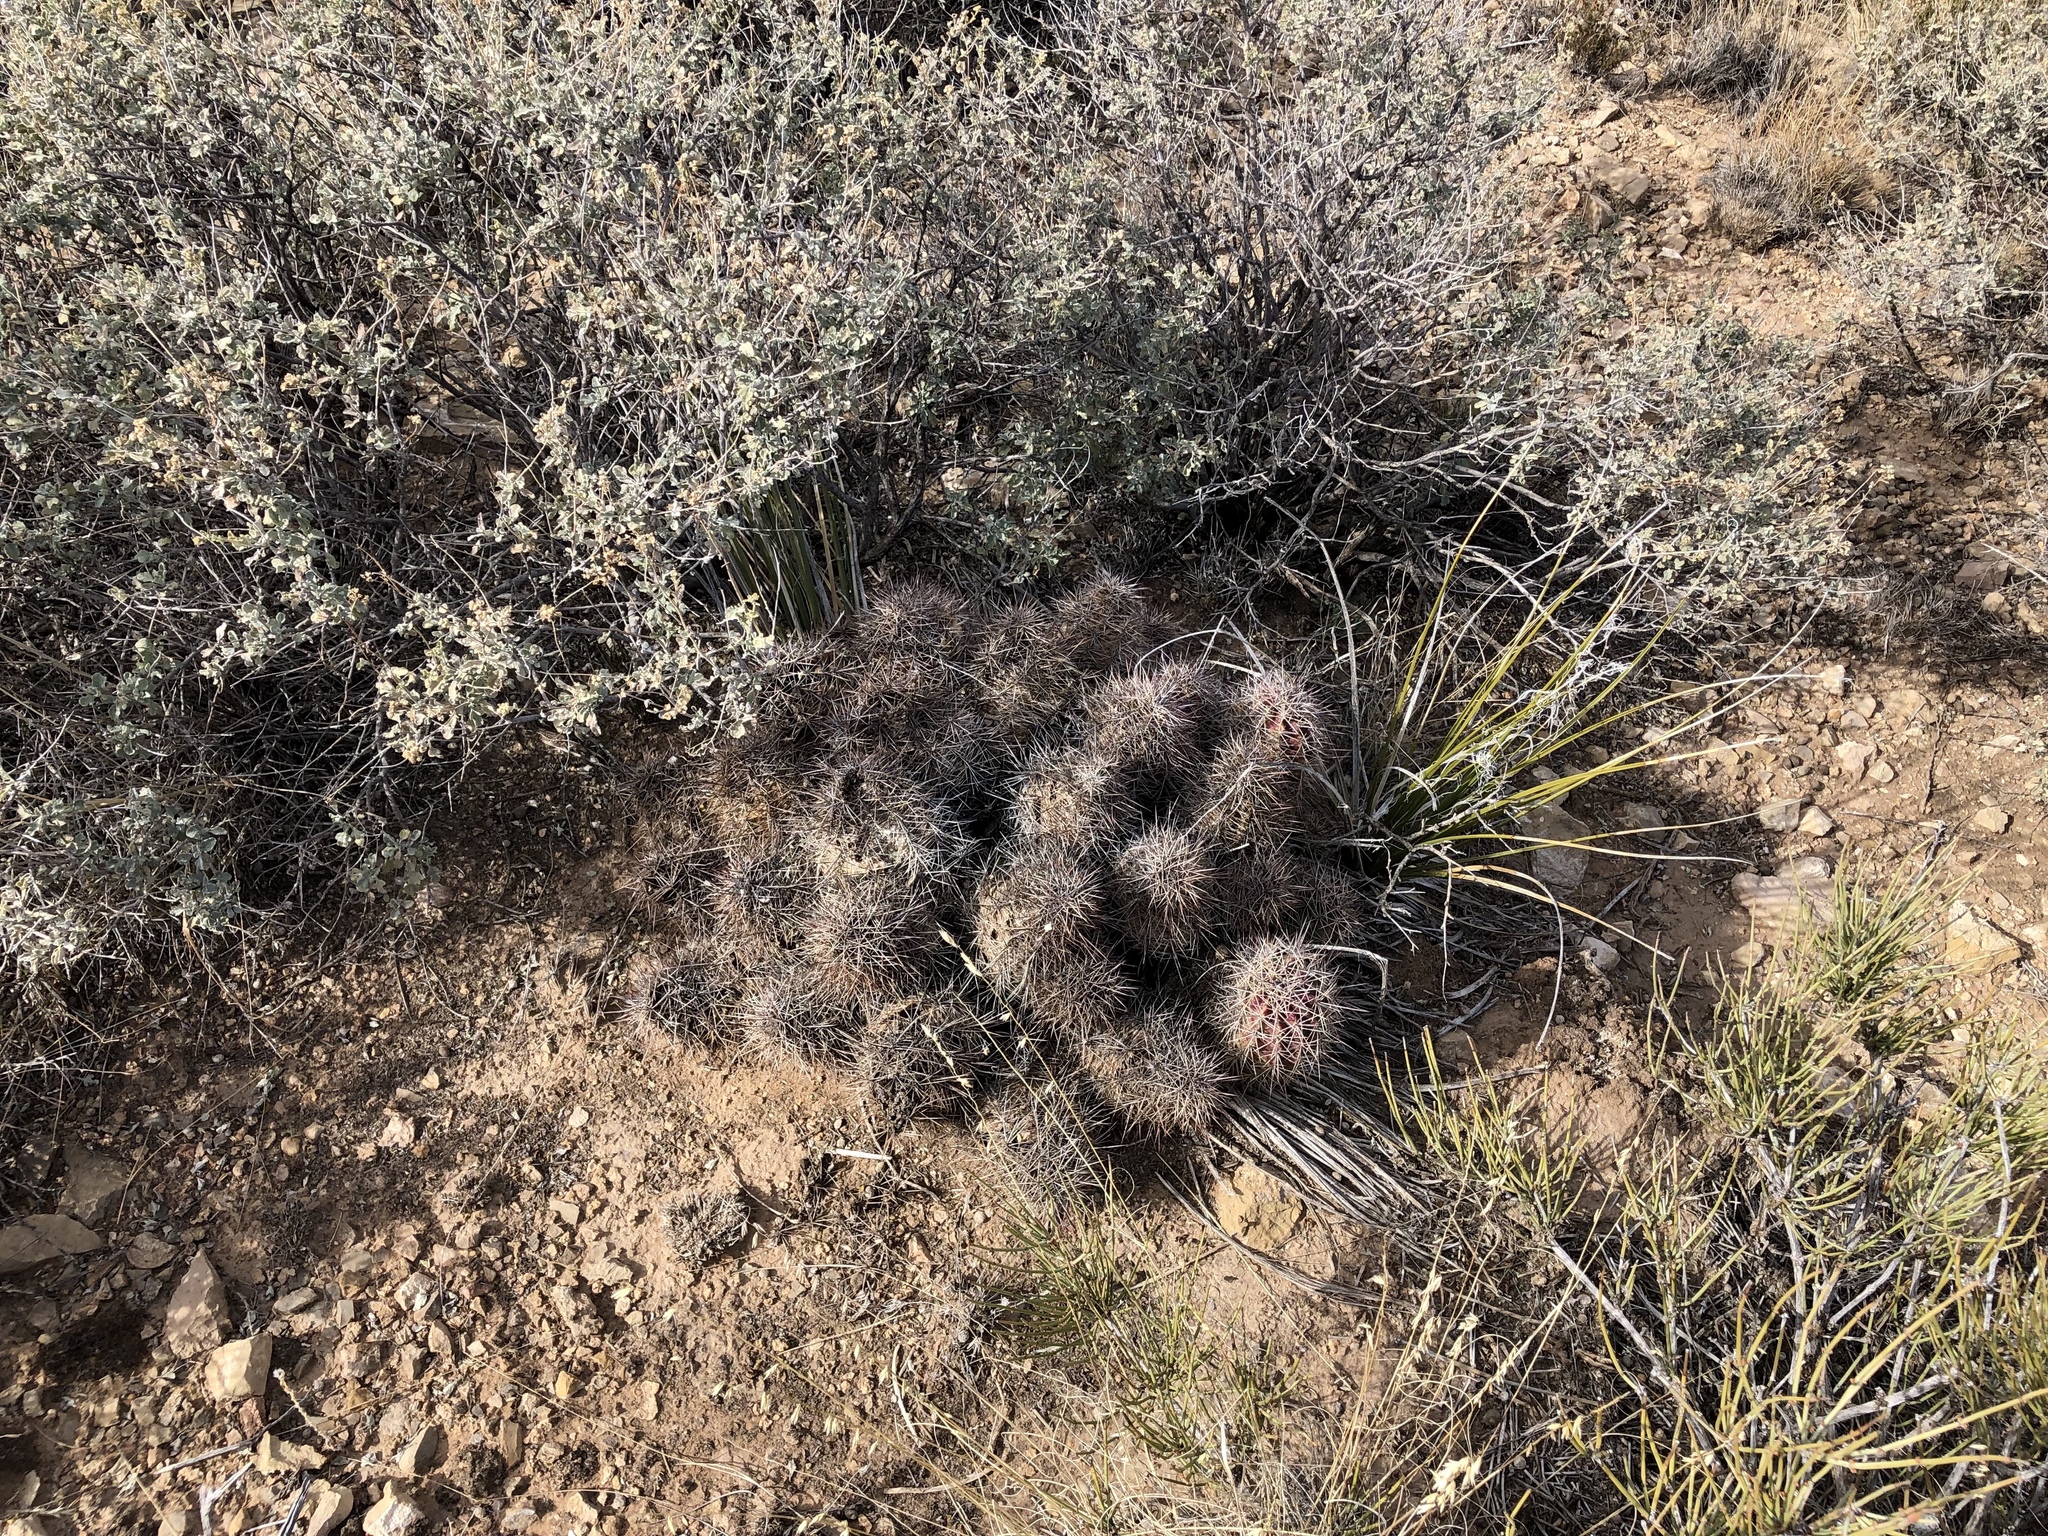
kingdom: Plantae
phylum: Tracheophyta
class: Magnoliopsida
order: Caryophyllales
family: Cactaceae
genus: Echinocereus
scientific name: Echinocereus coccineus
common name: Scarlet hedgehog cactus
